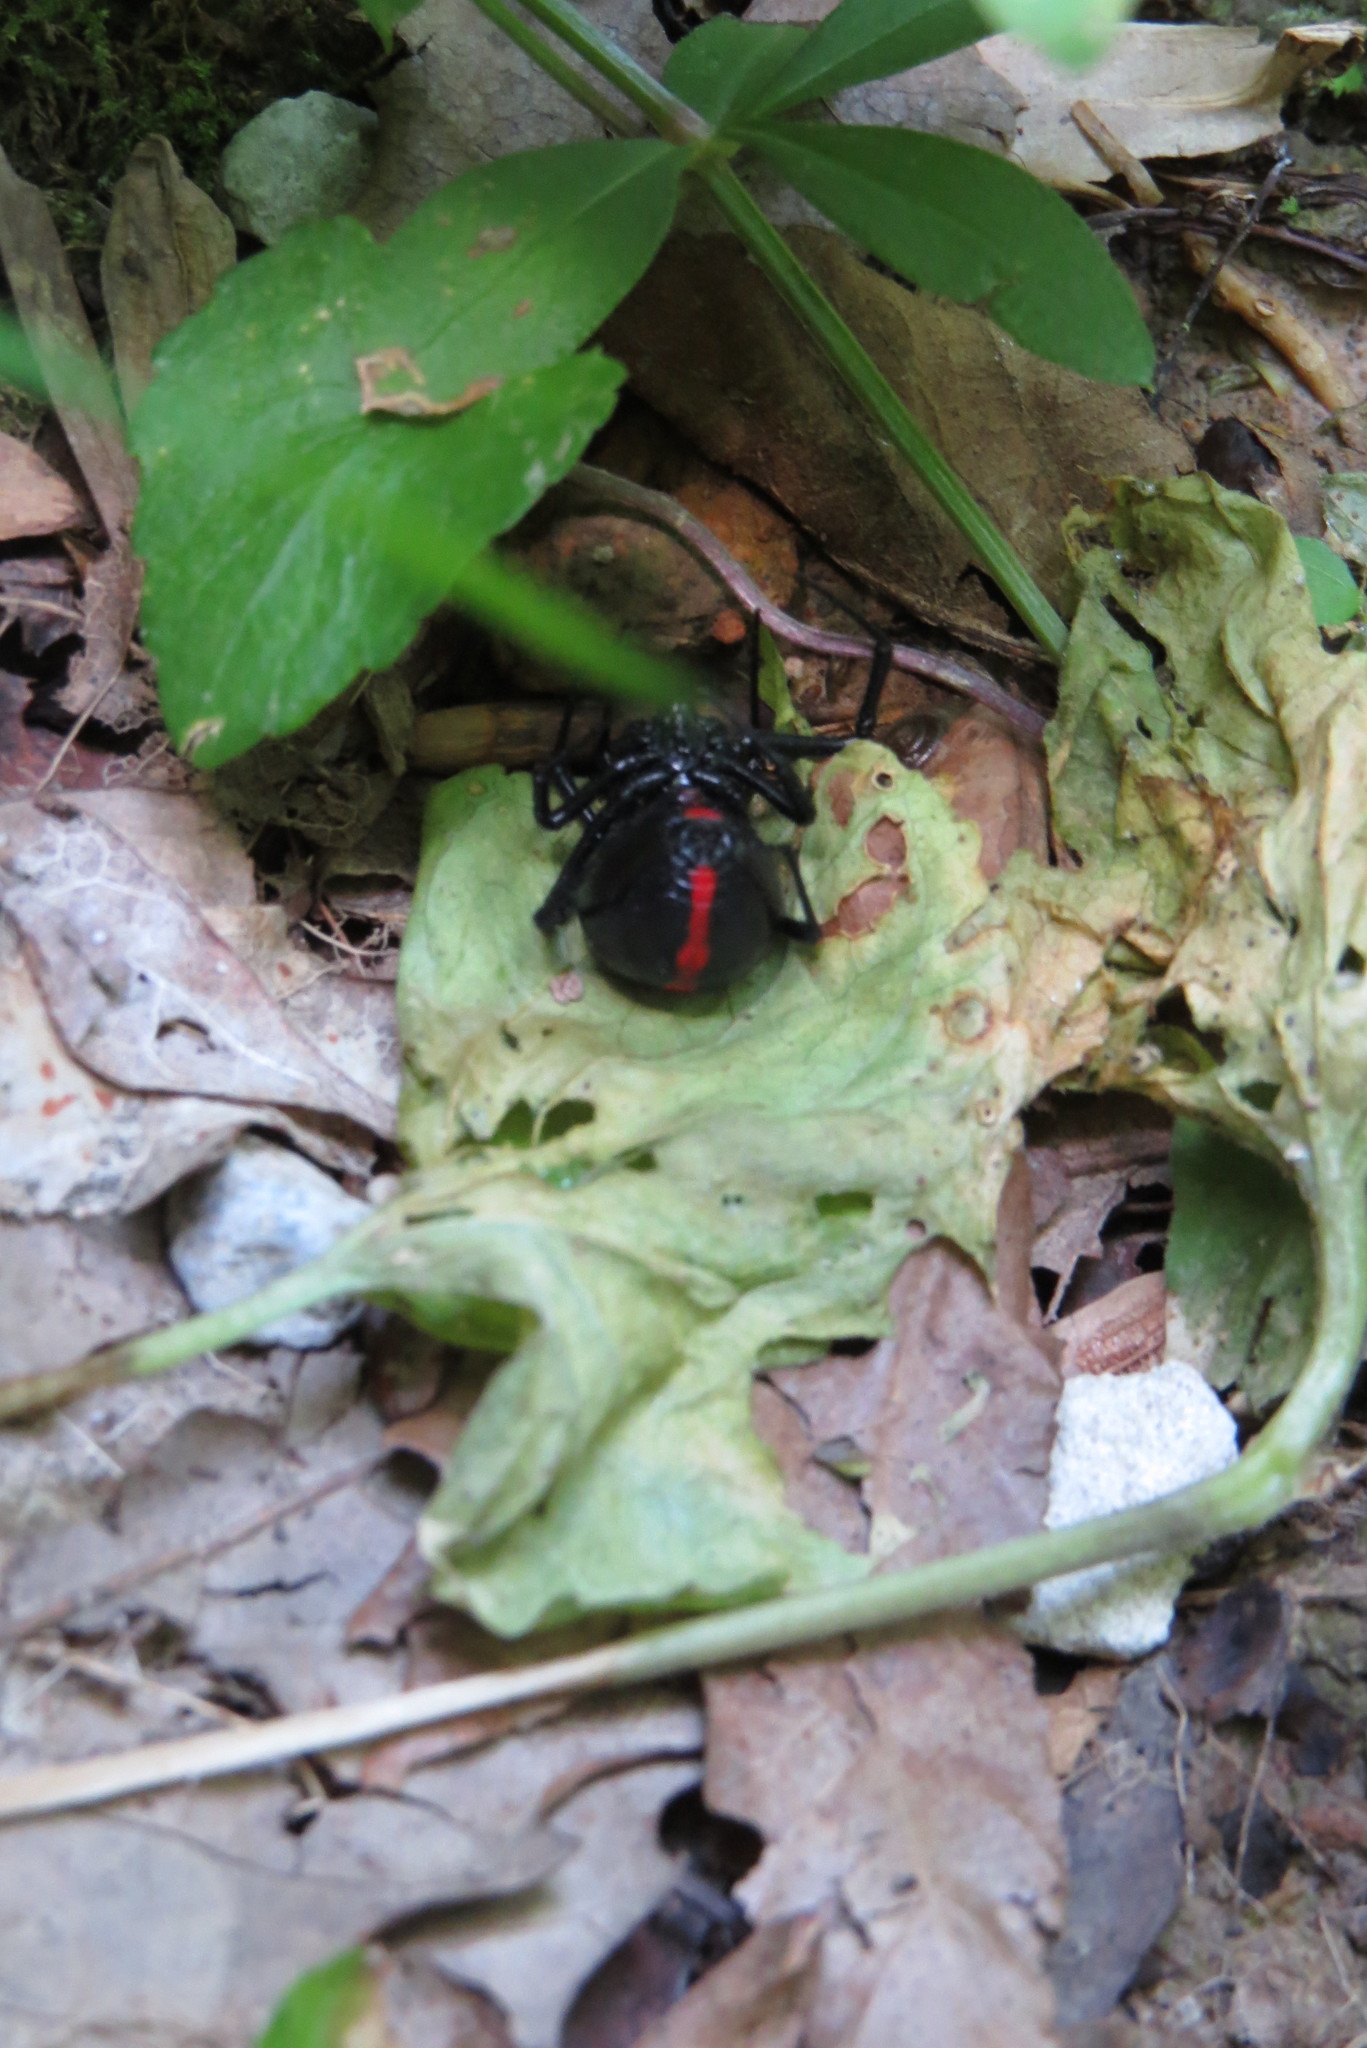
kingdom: Animalia
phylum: Arthropoda
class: Arachnida
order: Araneae
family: Theridiidae
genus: Latrodectus
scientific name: Latrodectus variolus
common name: Northern black widow
